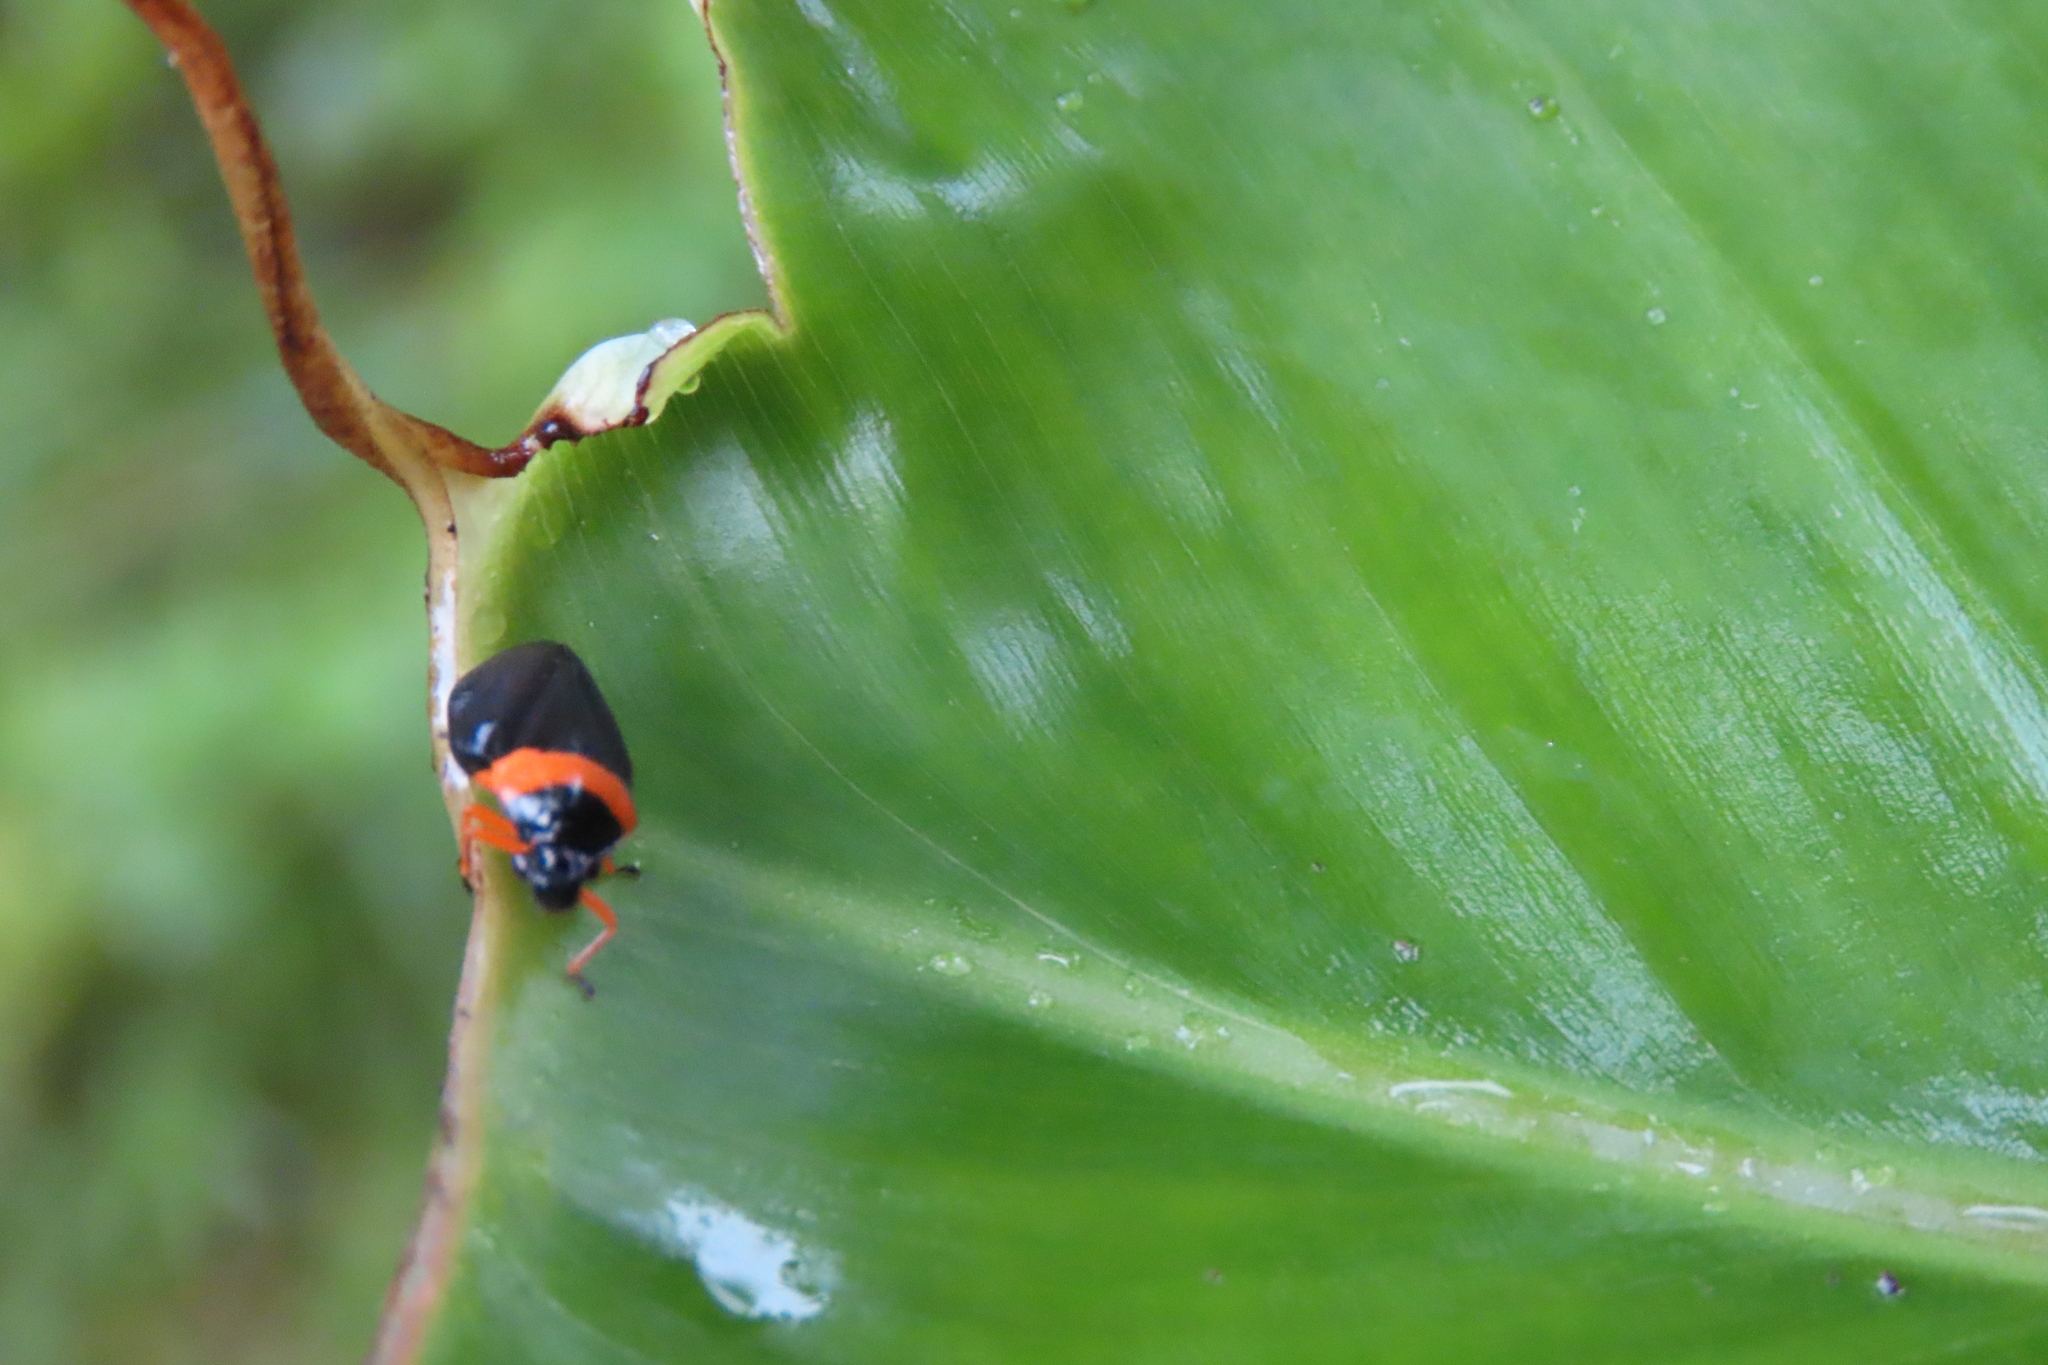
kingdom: Animalia
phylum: Arthropoda
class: Insecta
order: Hemiptera
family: Cercopidae
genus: Phymatostetha
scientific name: Phymatostetha deschampsi
